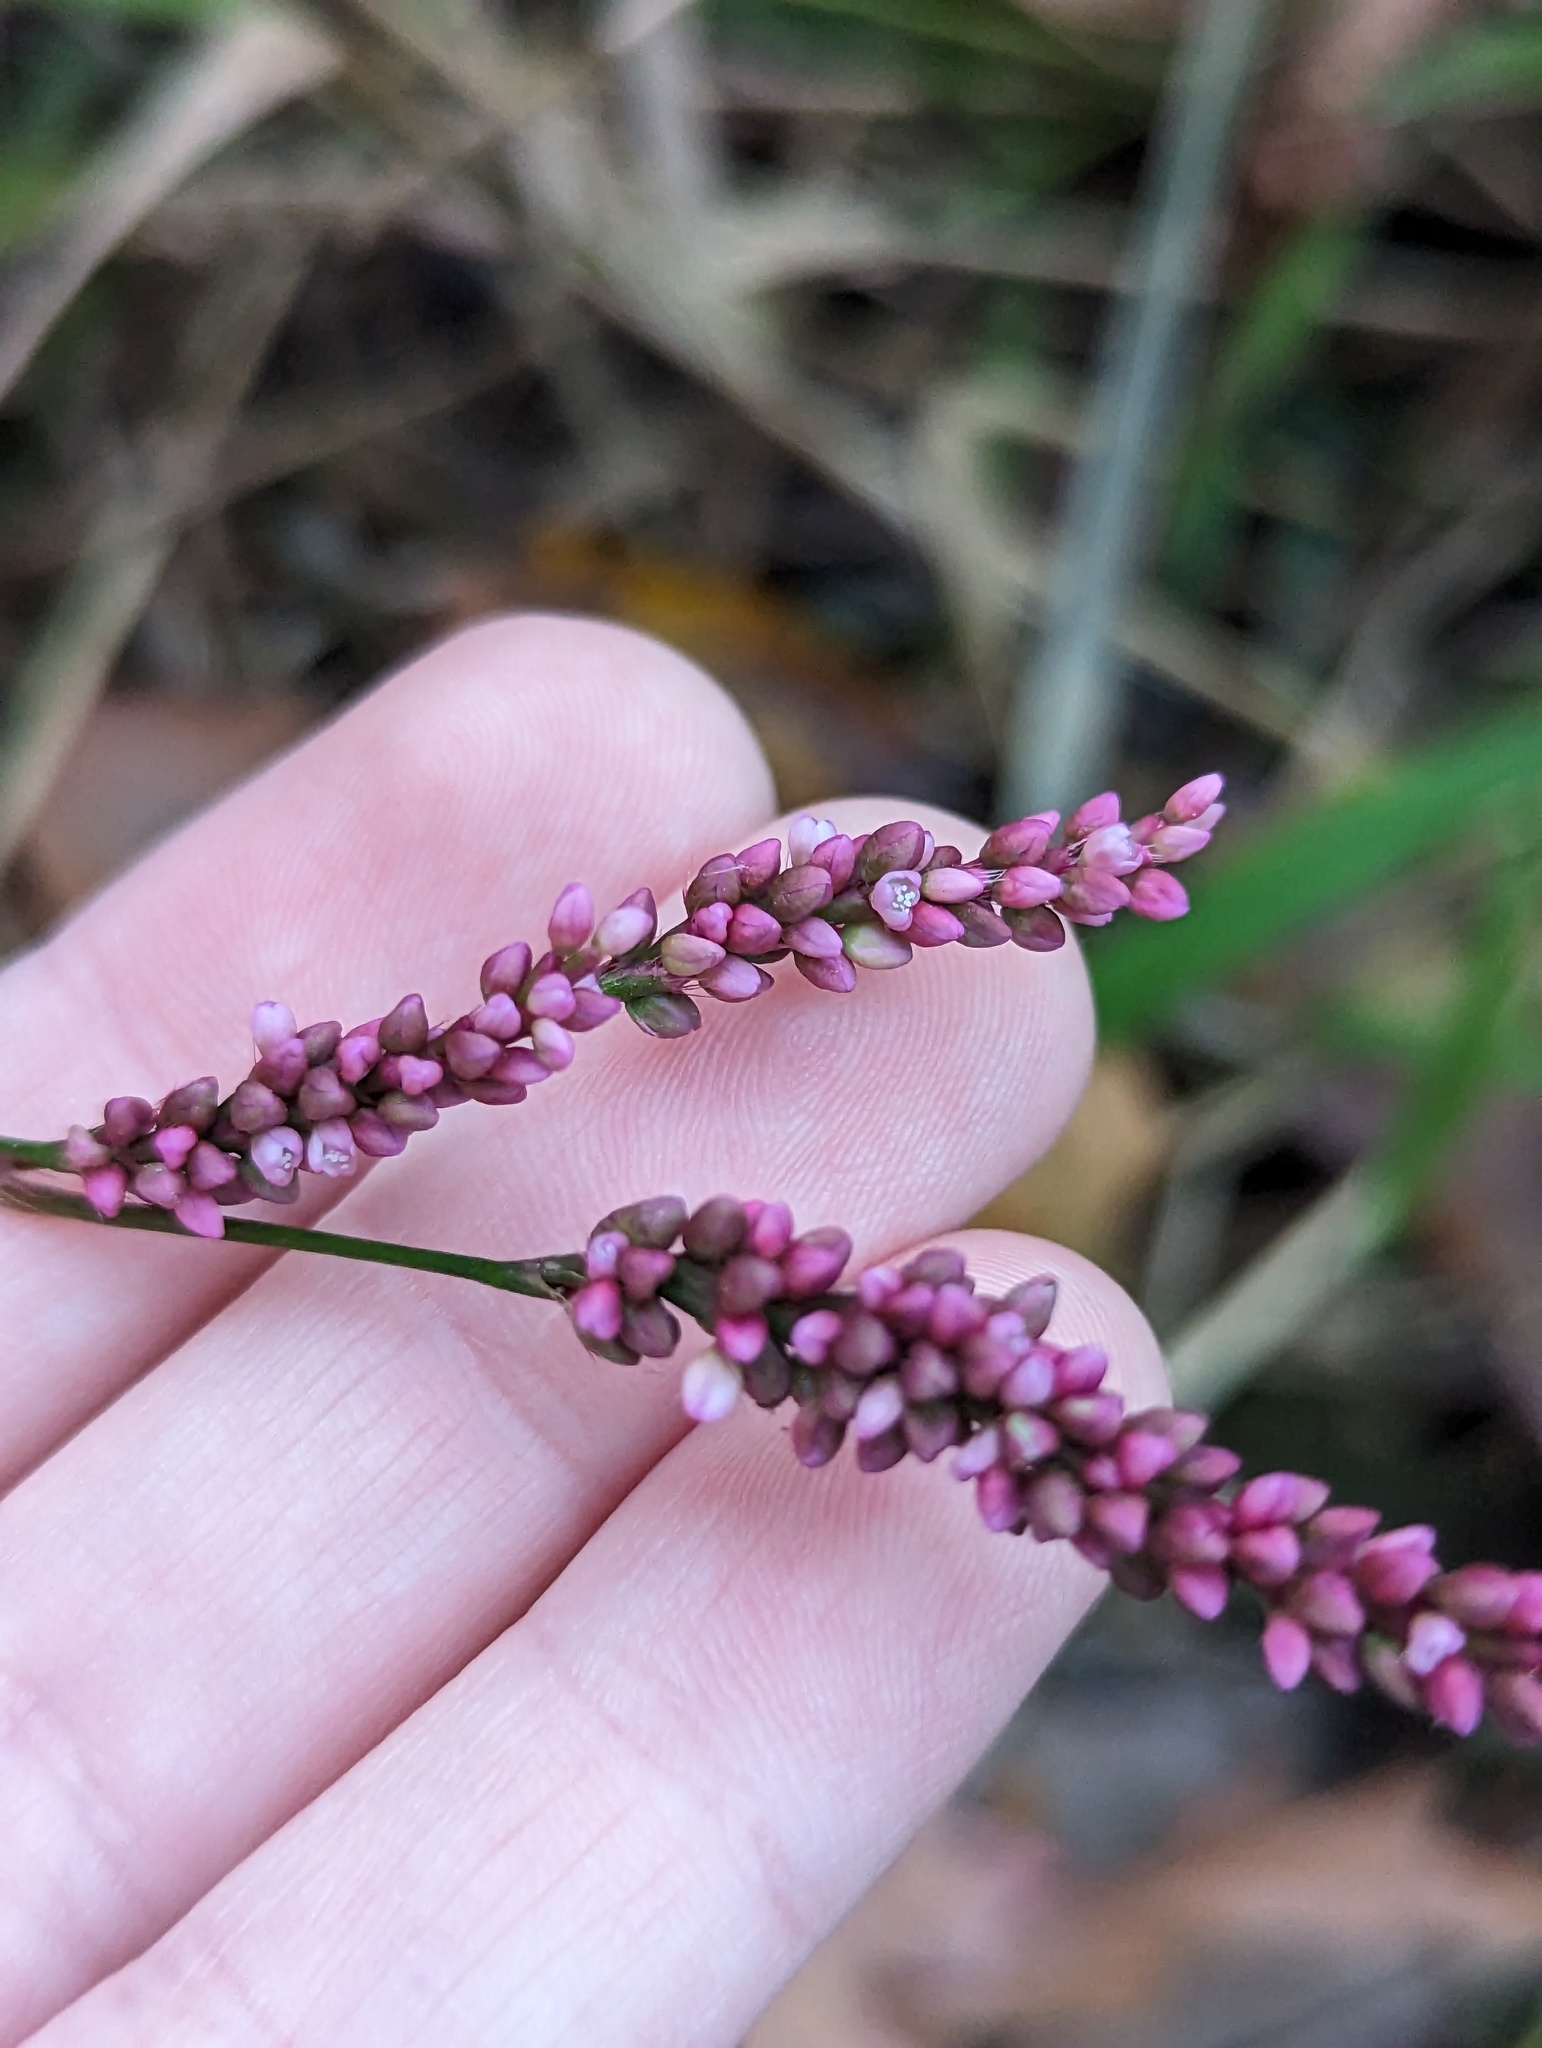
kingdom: Plantae
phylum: Tracheophyta
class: Magnoliopsida
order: Caryophyllales
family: Polygonaceae
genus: Persicaria
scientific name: Persicaria longiseta
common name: Bristly lady's-thumb
